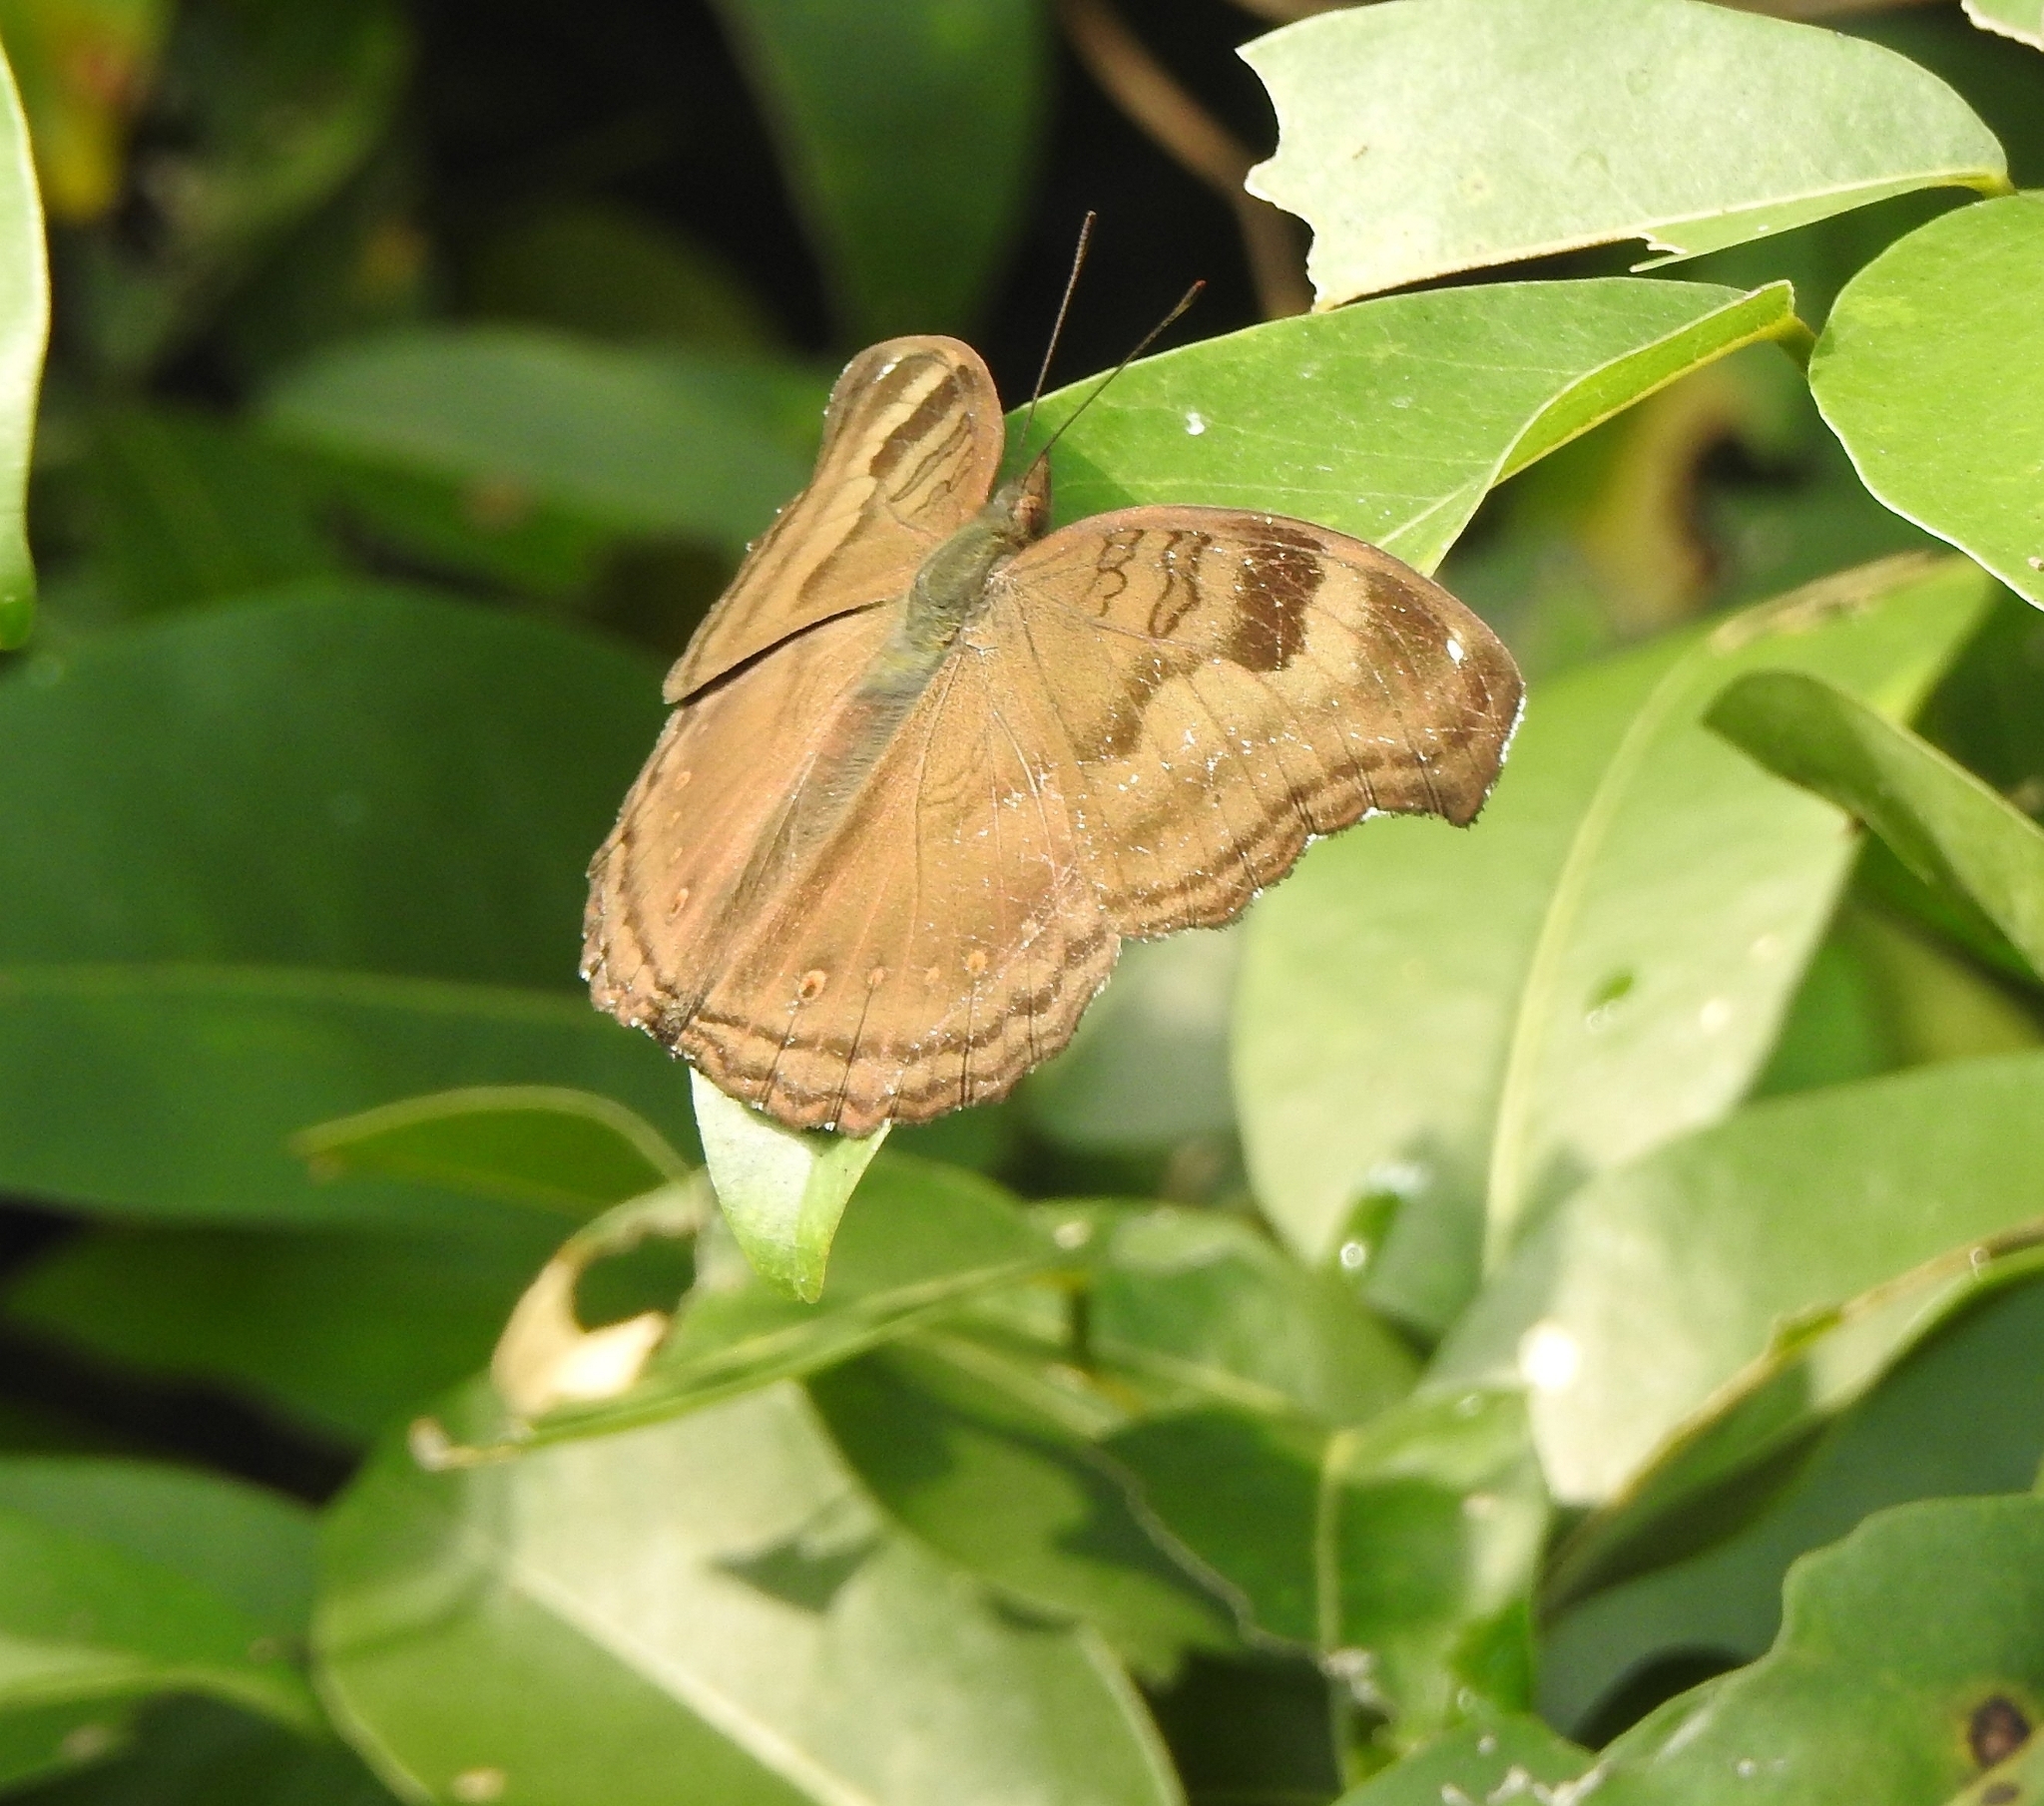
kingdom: Animalia
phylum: Arthropoda
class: Insecta
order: Lepidoptera
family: Nymphalidae
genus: Junonia
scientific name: Junonia iphita
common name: Chocolate pansy
